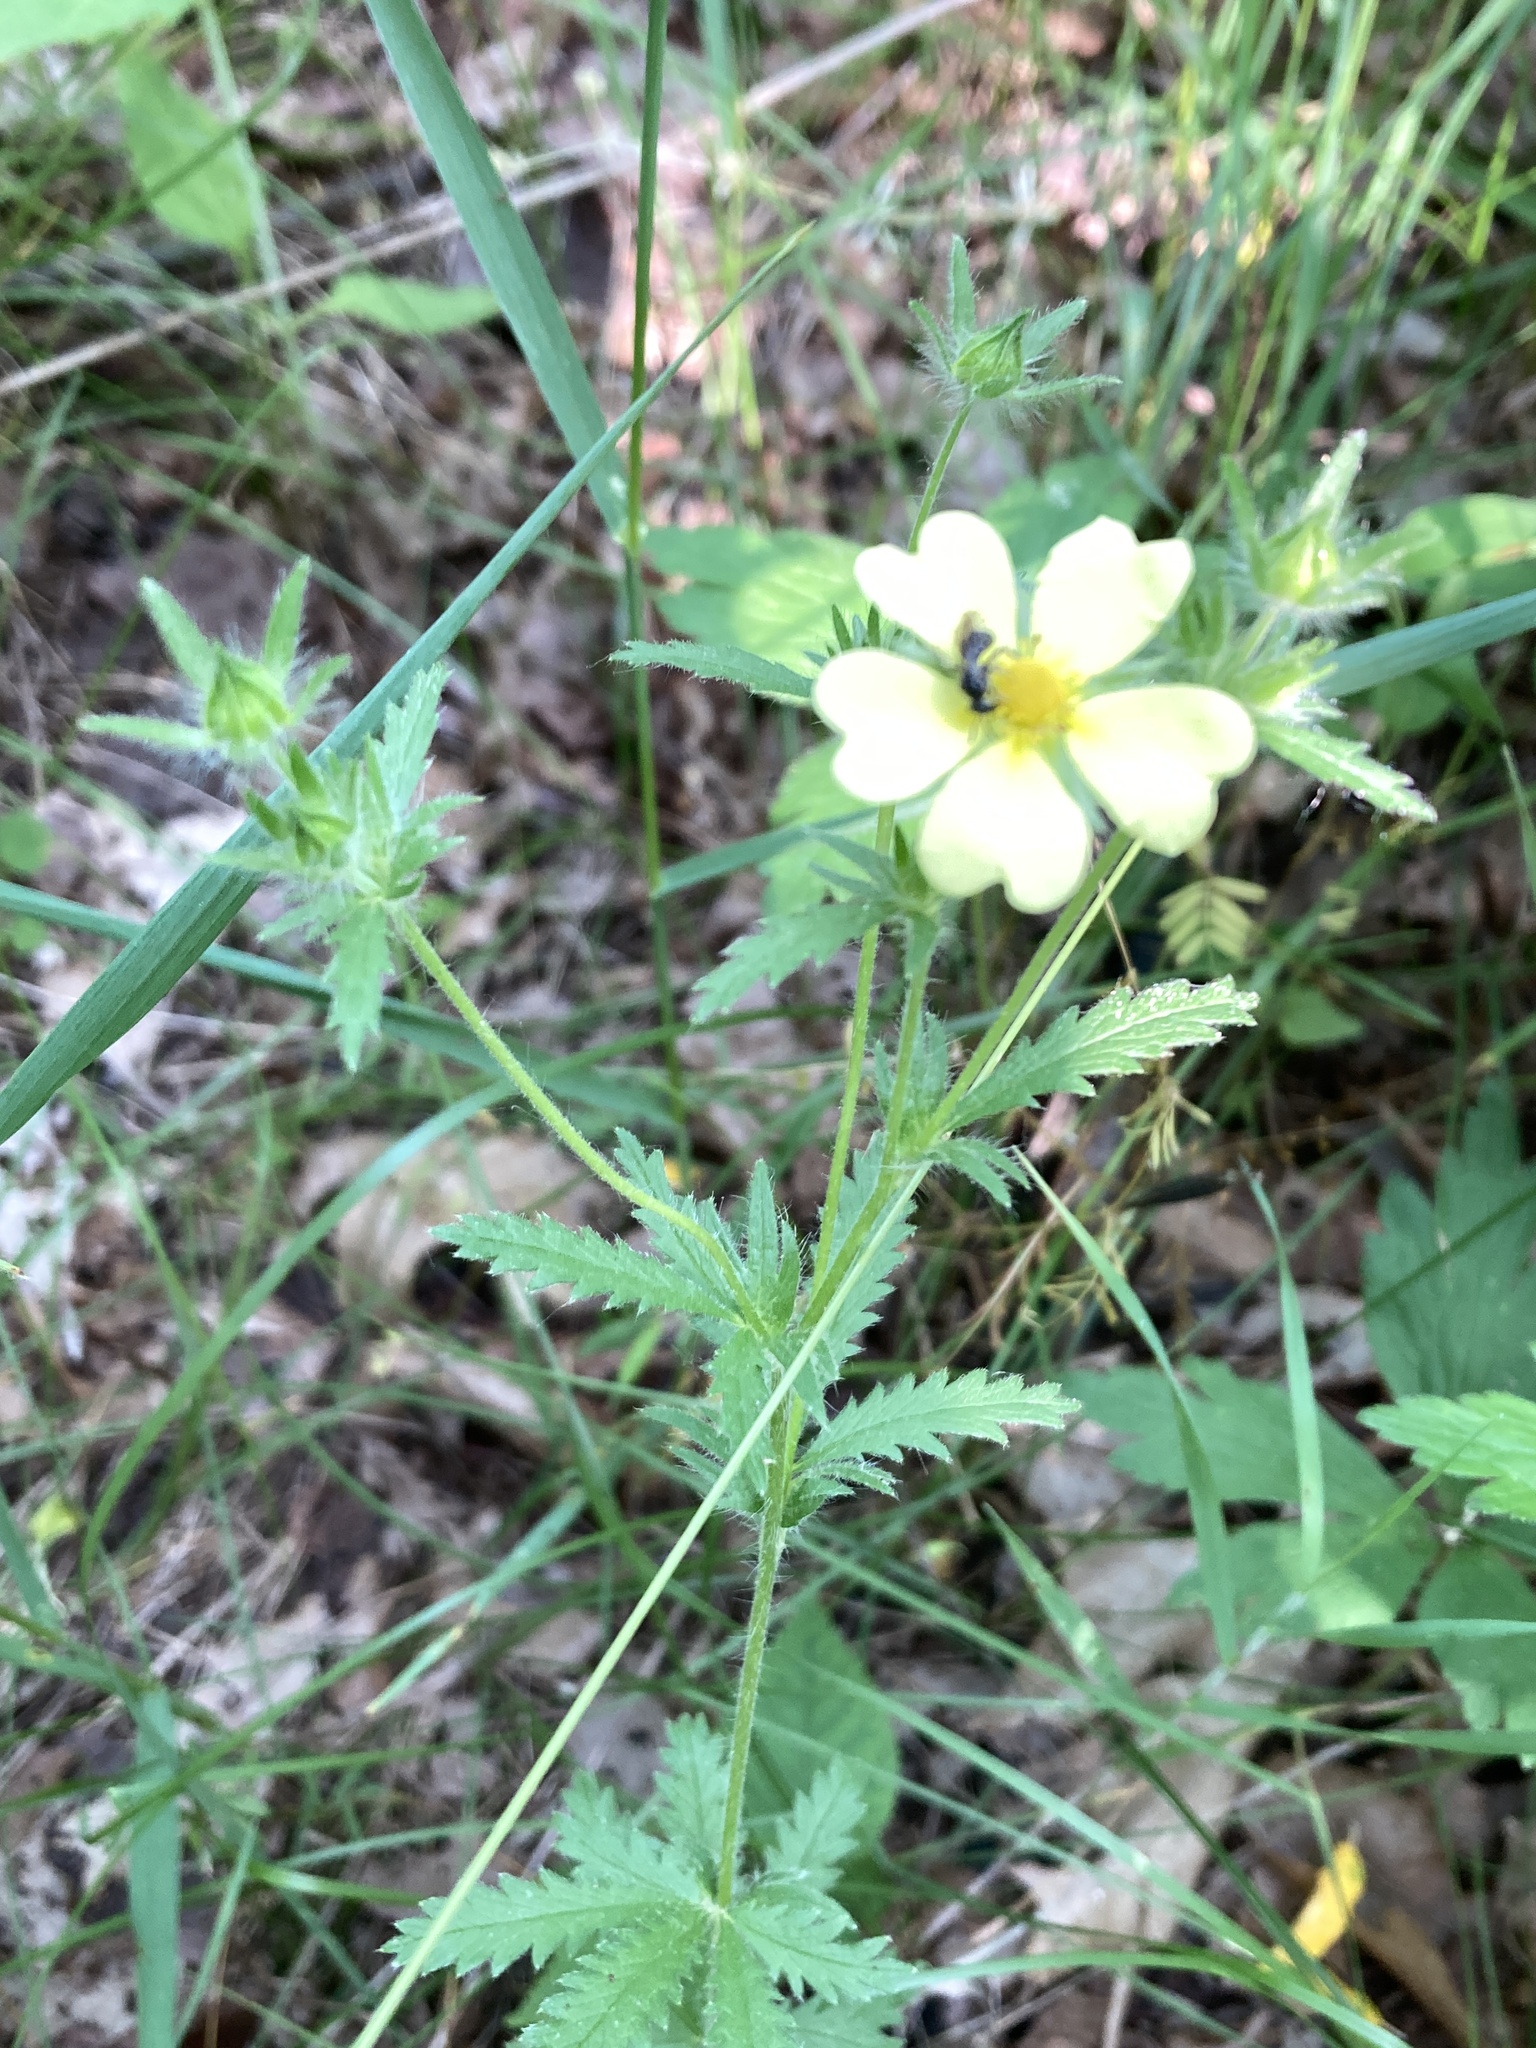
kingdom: Plantae
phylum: Tracheophyta
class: Magnoliopsida
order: Rosales
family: Rosaceae
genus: Potentilla
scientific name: Potentilla recta
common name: Sulphur cinquefoil
